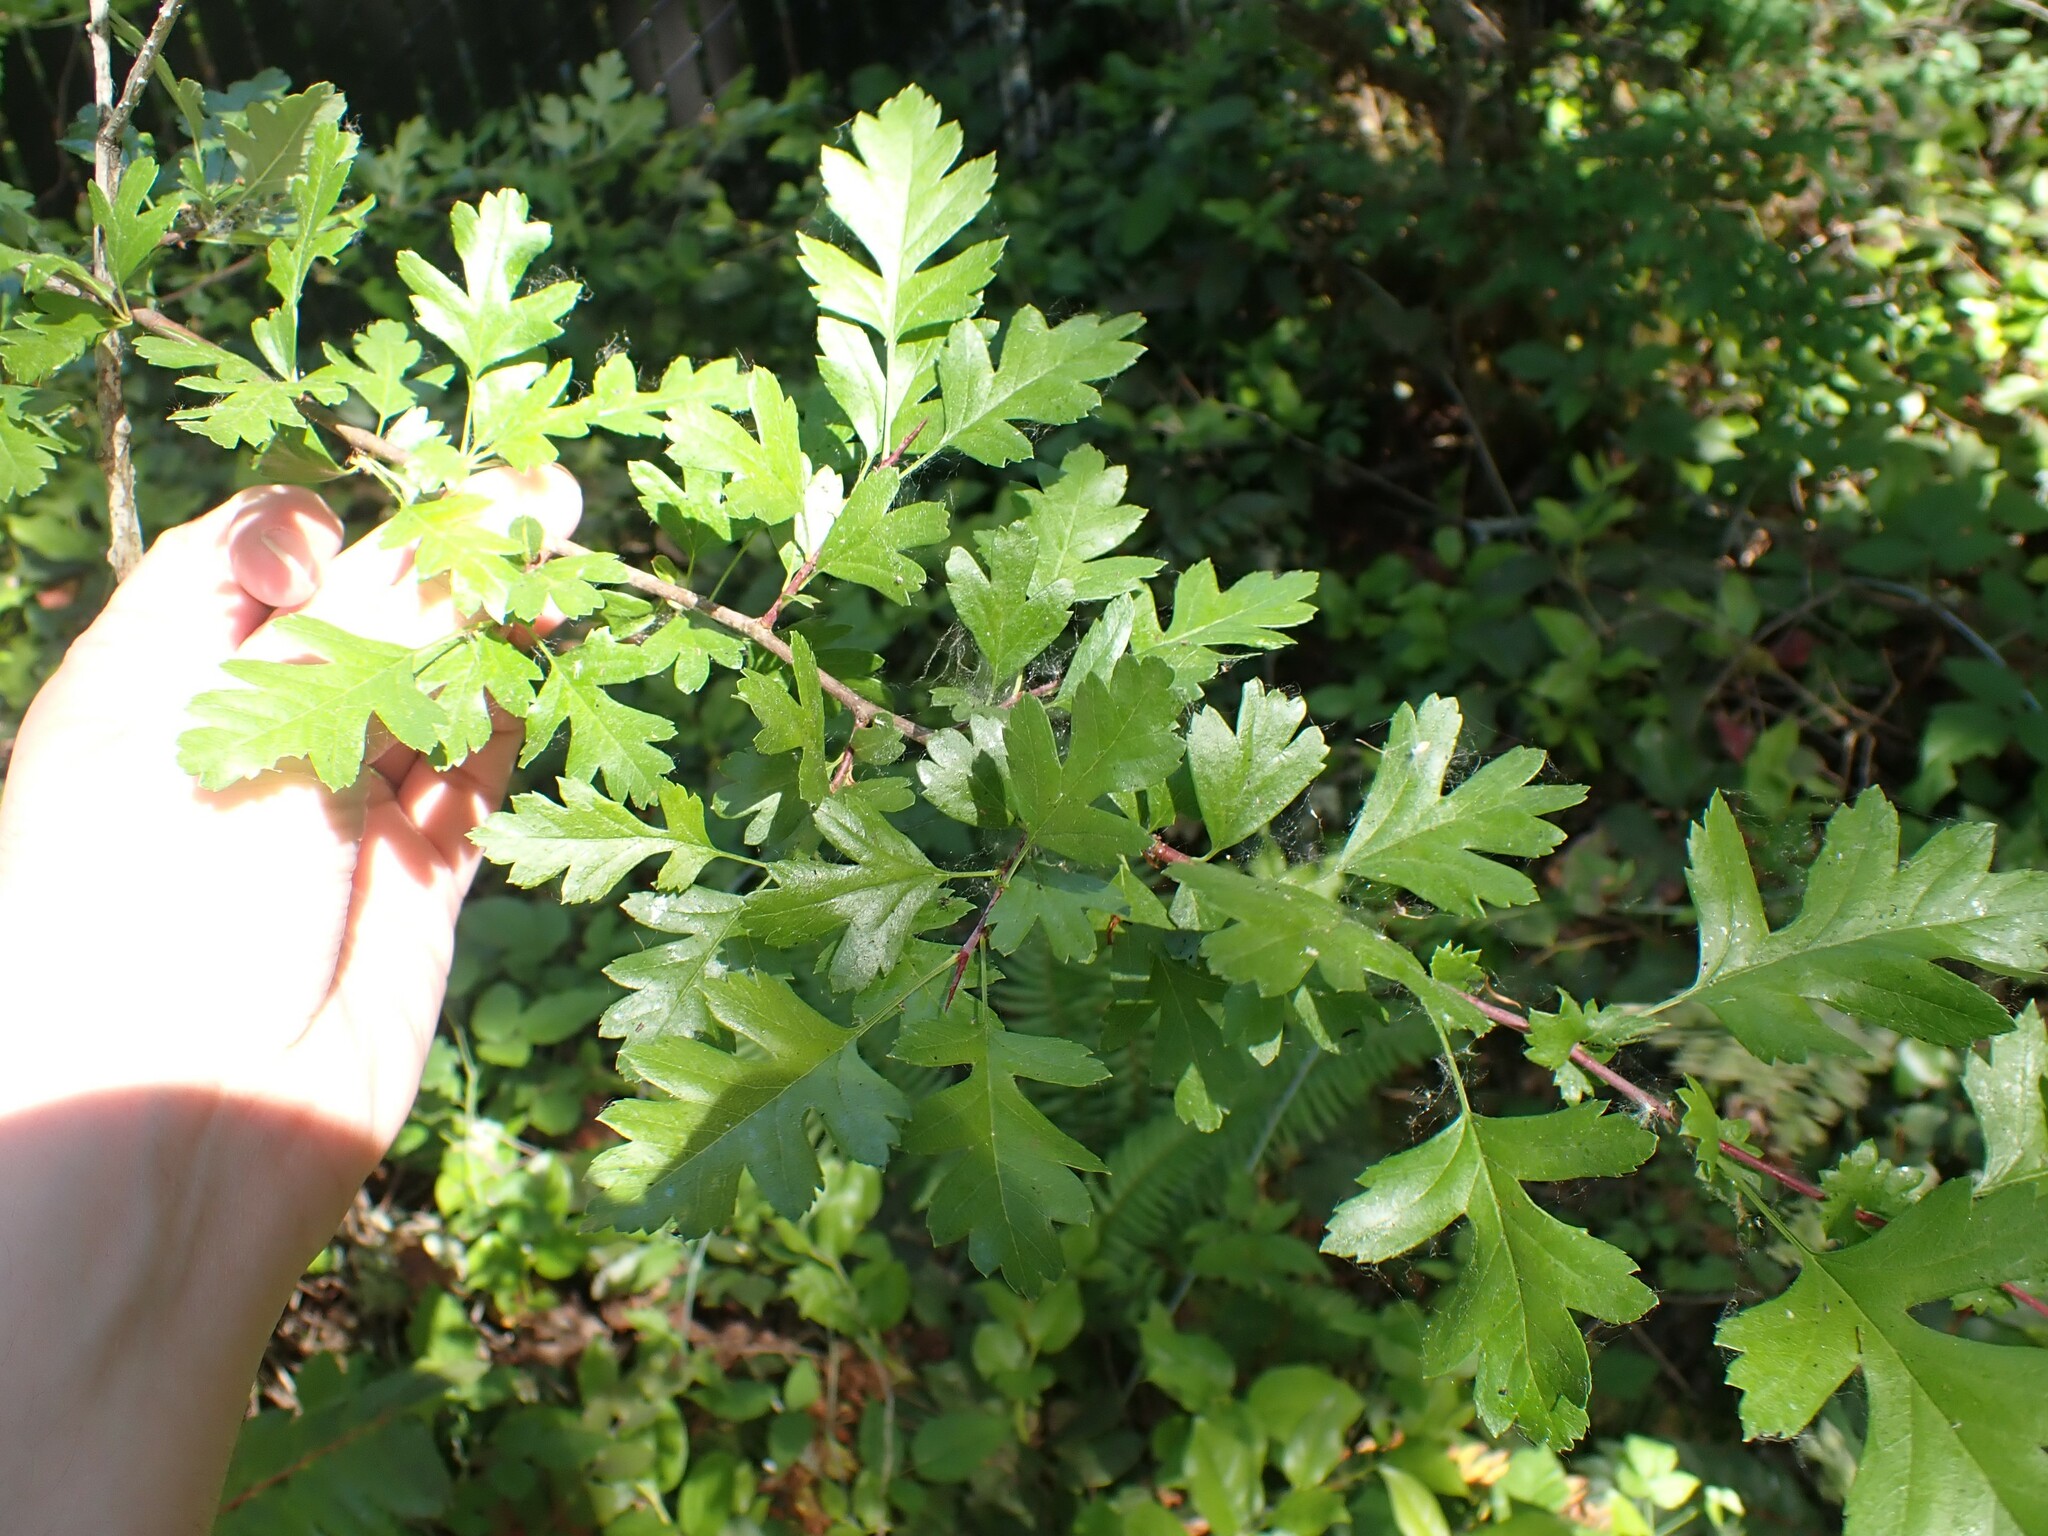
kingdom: Plantae
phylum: Tracheophyta
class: Magnoliopsida
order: Rosales
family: Rosaceae
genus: Crataegus
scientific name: Crataegus monogyna
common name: Hawthorn
